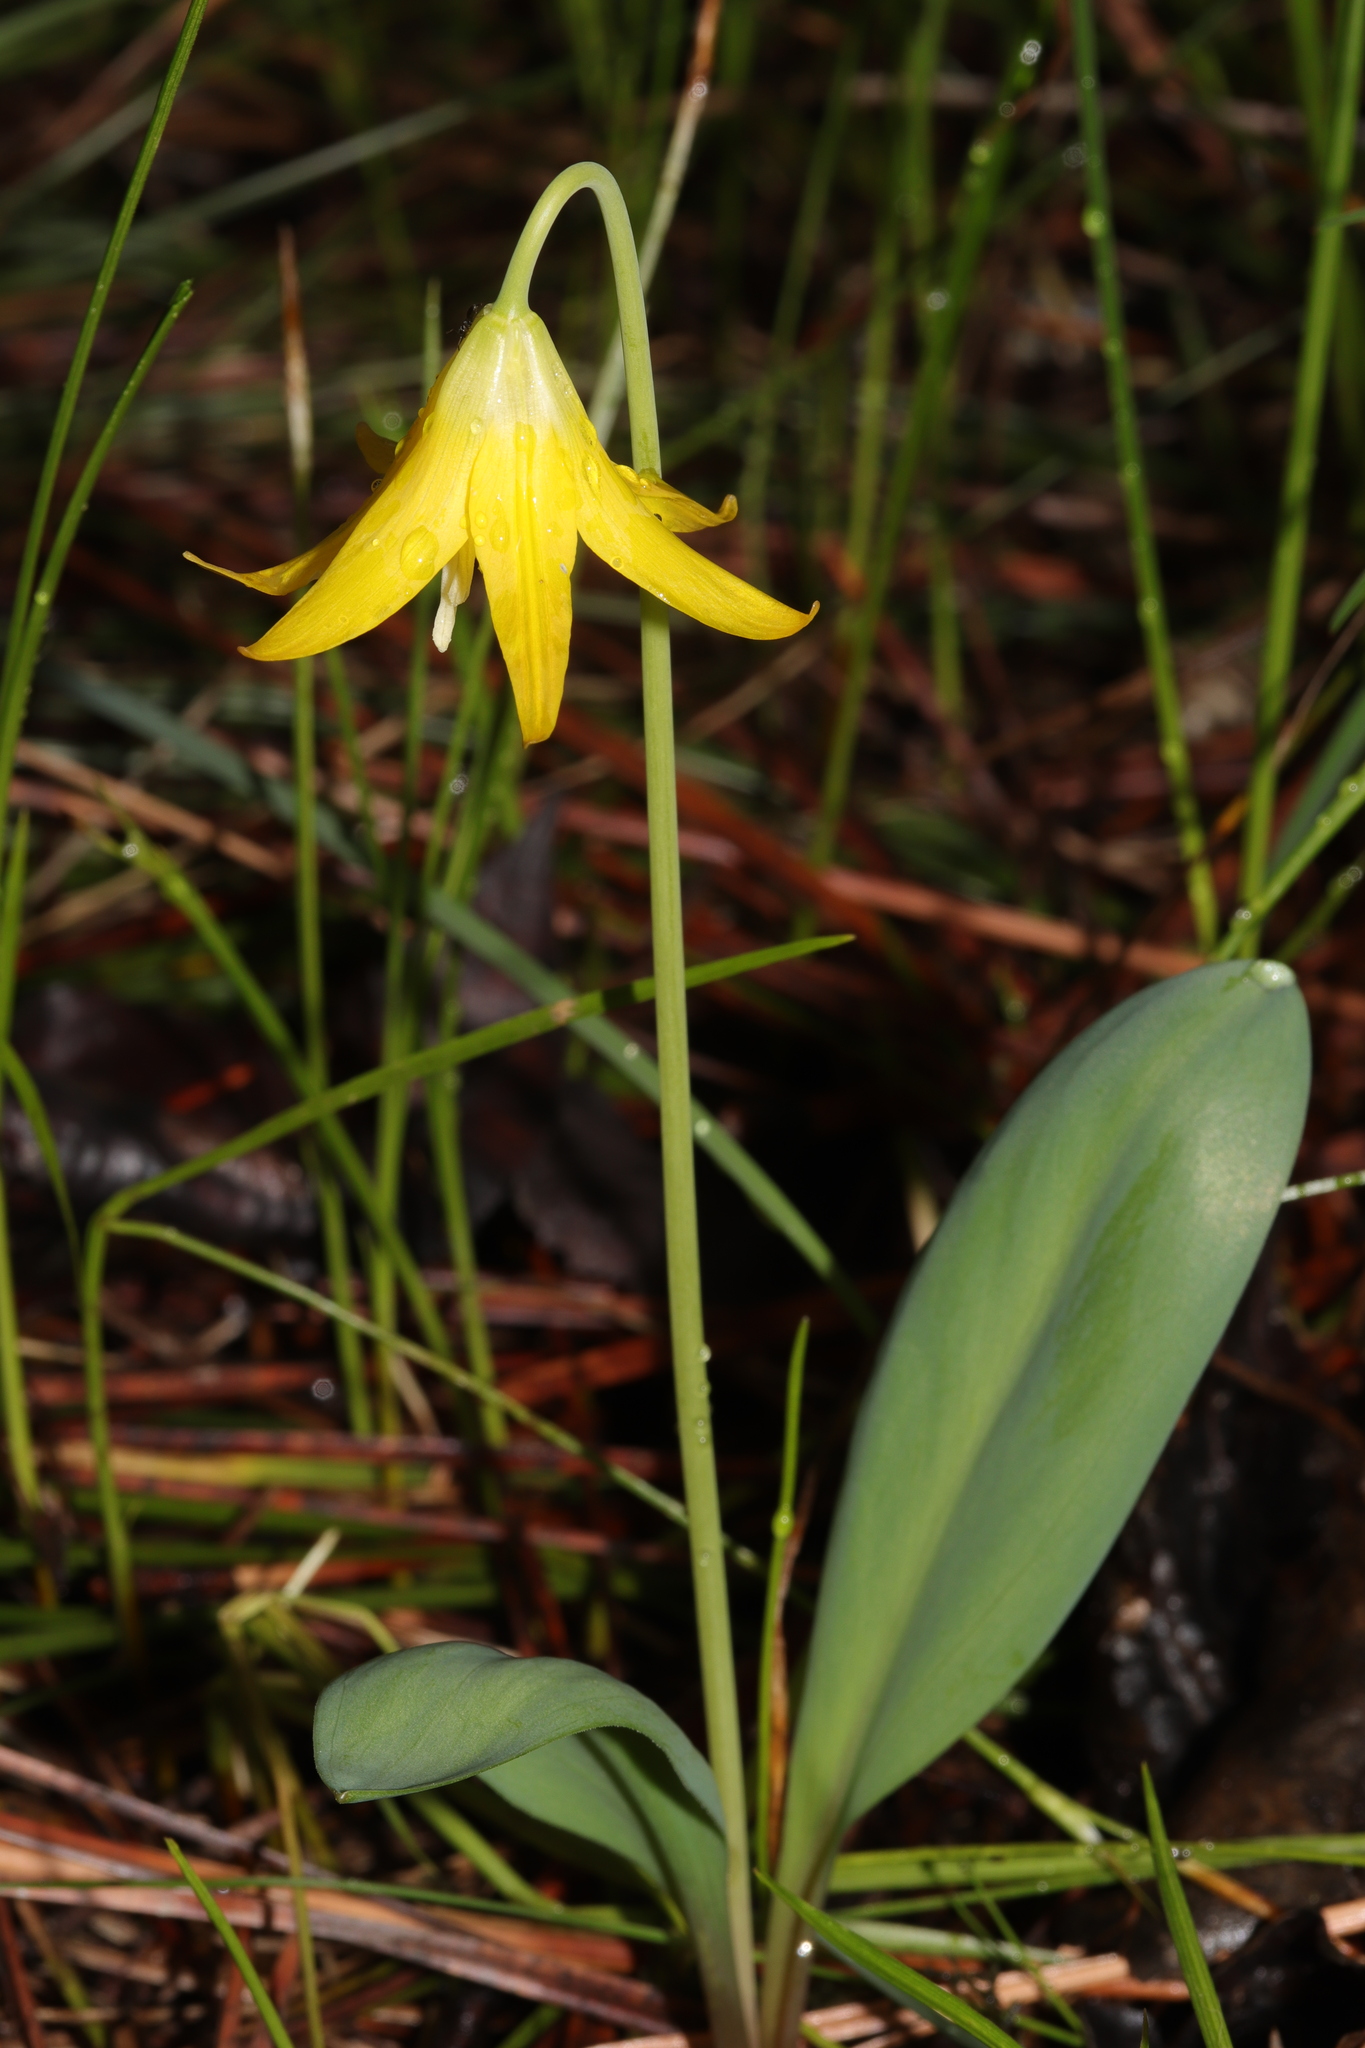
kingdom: Plantae
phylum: Tracheophyta
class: Liliopsida
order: Liliales
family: Liliaceae
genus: Erythronium
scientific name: Erythronium grandiflorum
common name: Avalanche-lily
